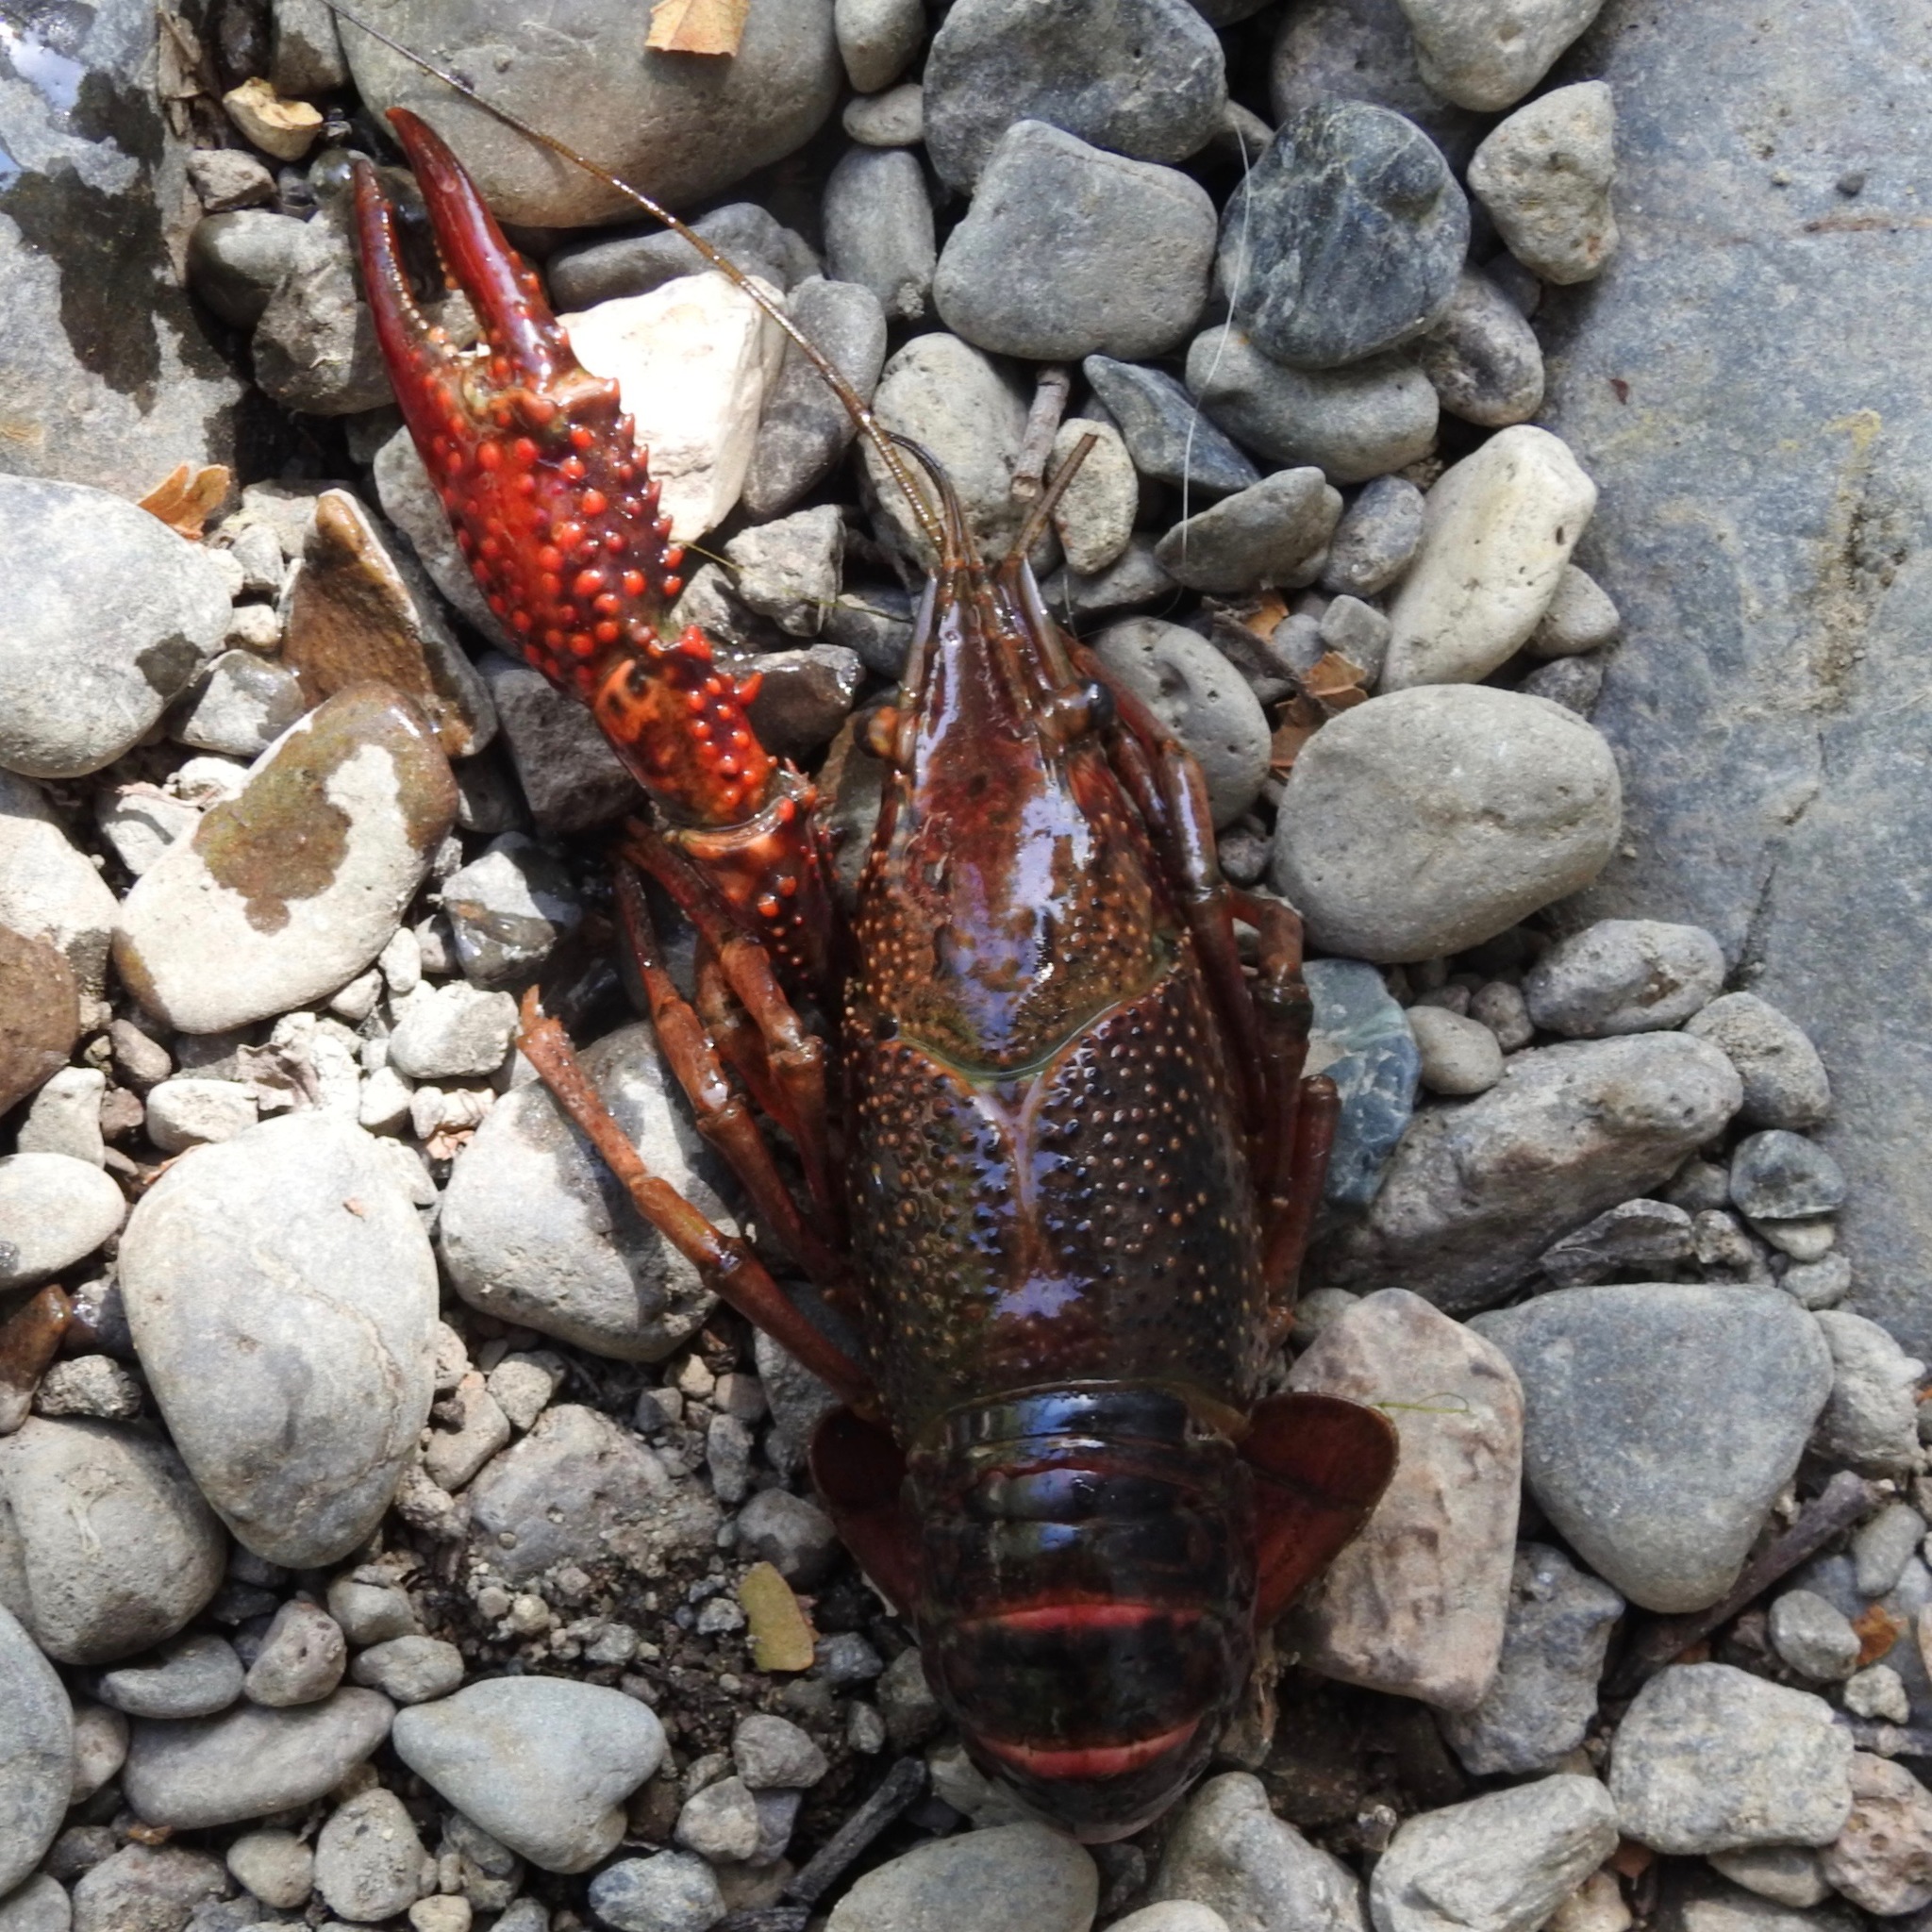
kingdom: Animalia
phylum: Arthropoda
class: Malacostraca
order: Decapoda
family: Cambaridae
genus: Procambarus
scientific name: Procambarus clarkii
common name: Red swamp crayfish
